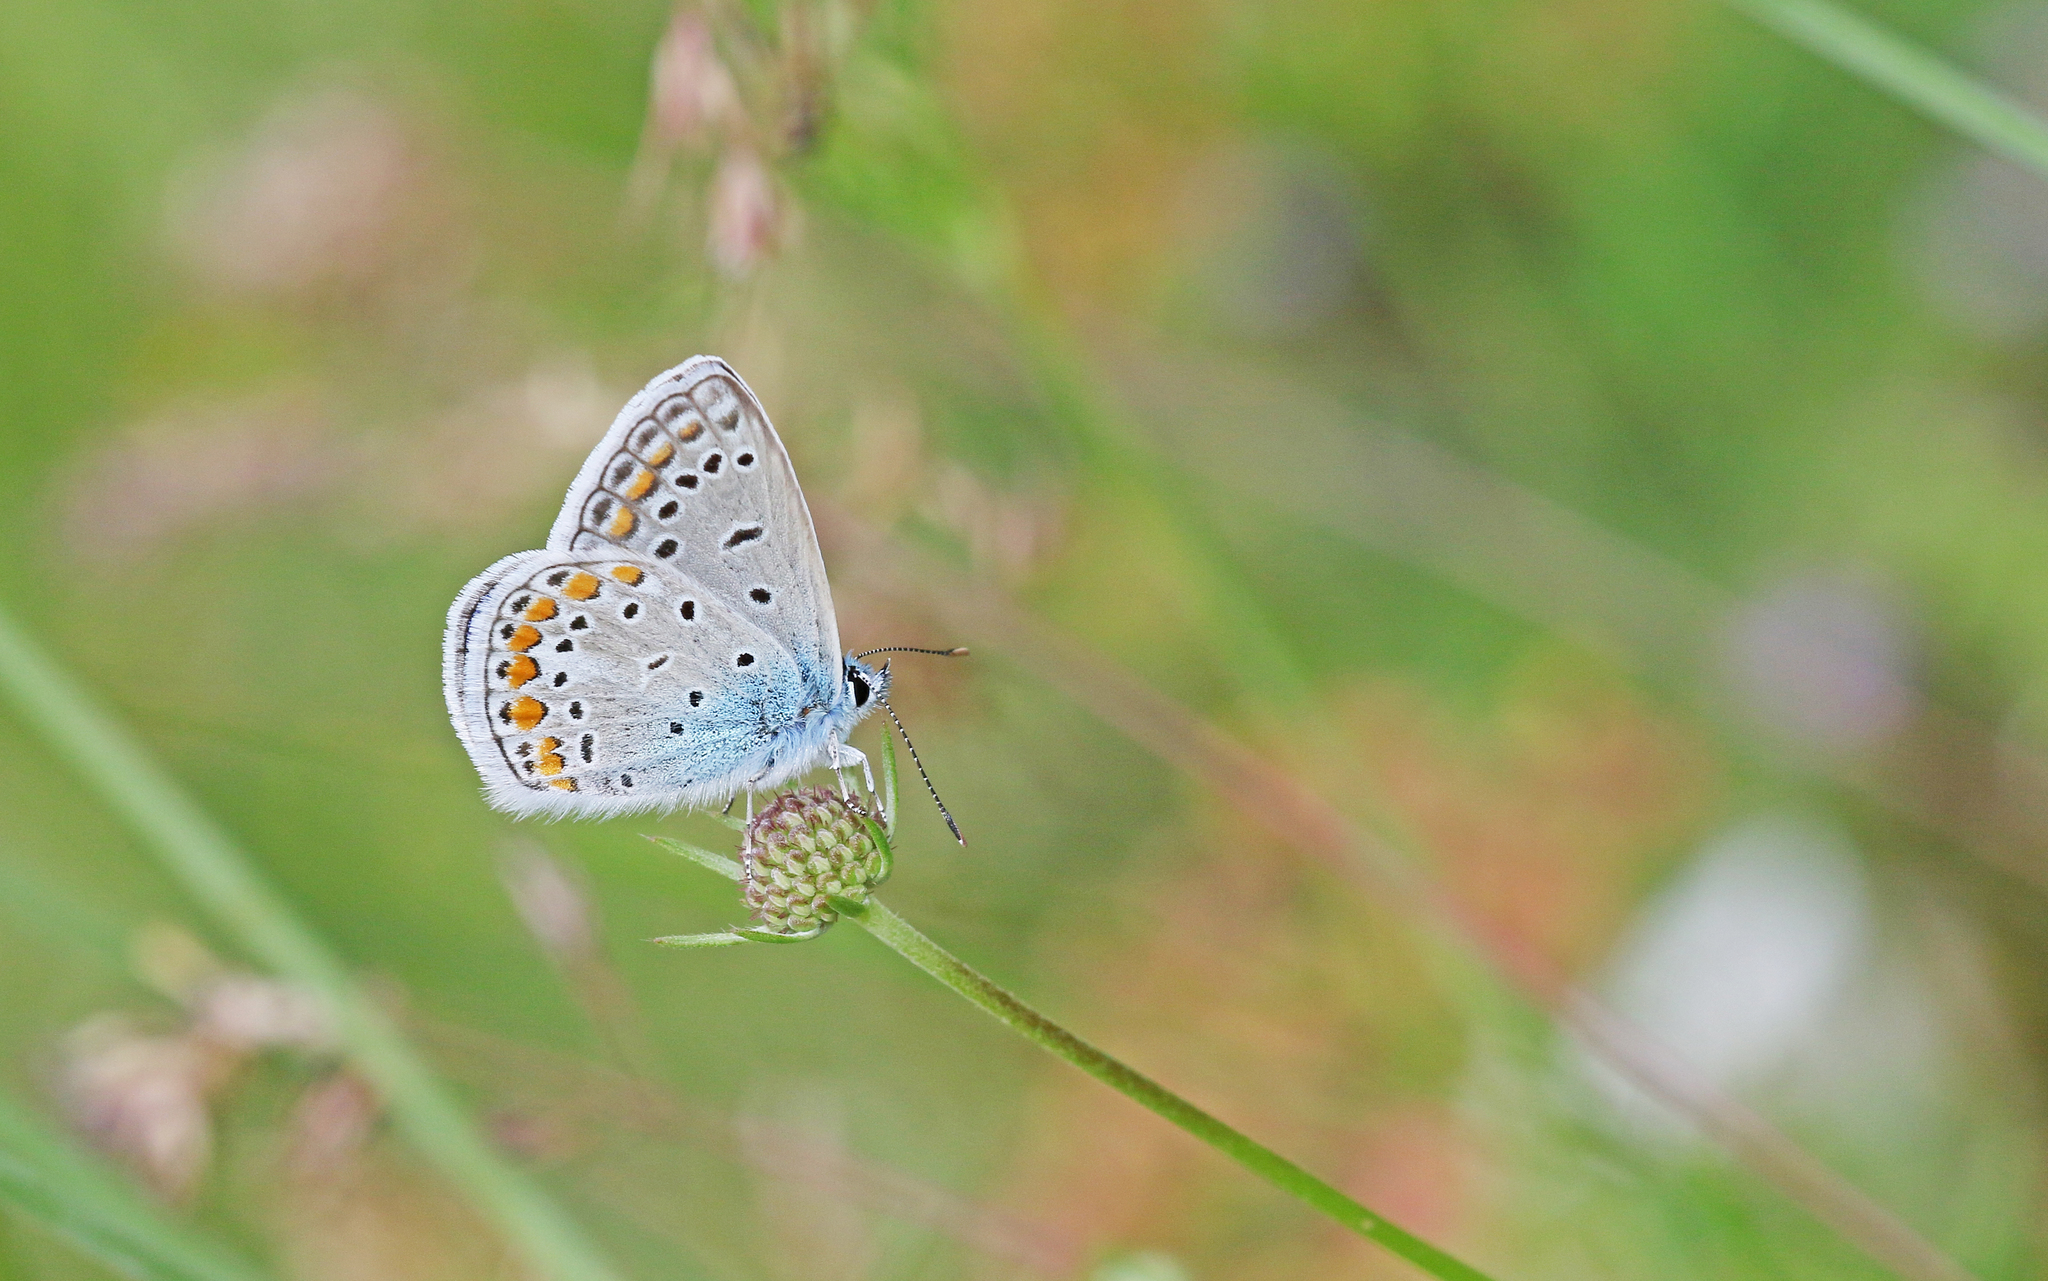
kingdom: Animalia
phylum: Arthropoda
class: Insecta
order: Lepidoptera
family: Lycaenidae
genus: Polyommatus
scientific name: Polyommatus icarus
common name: Common blue
